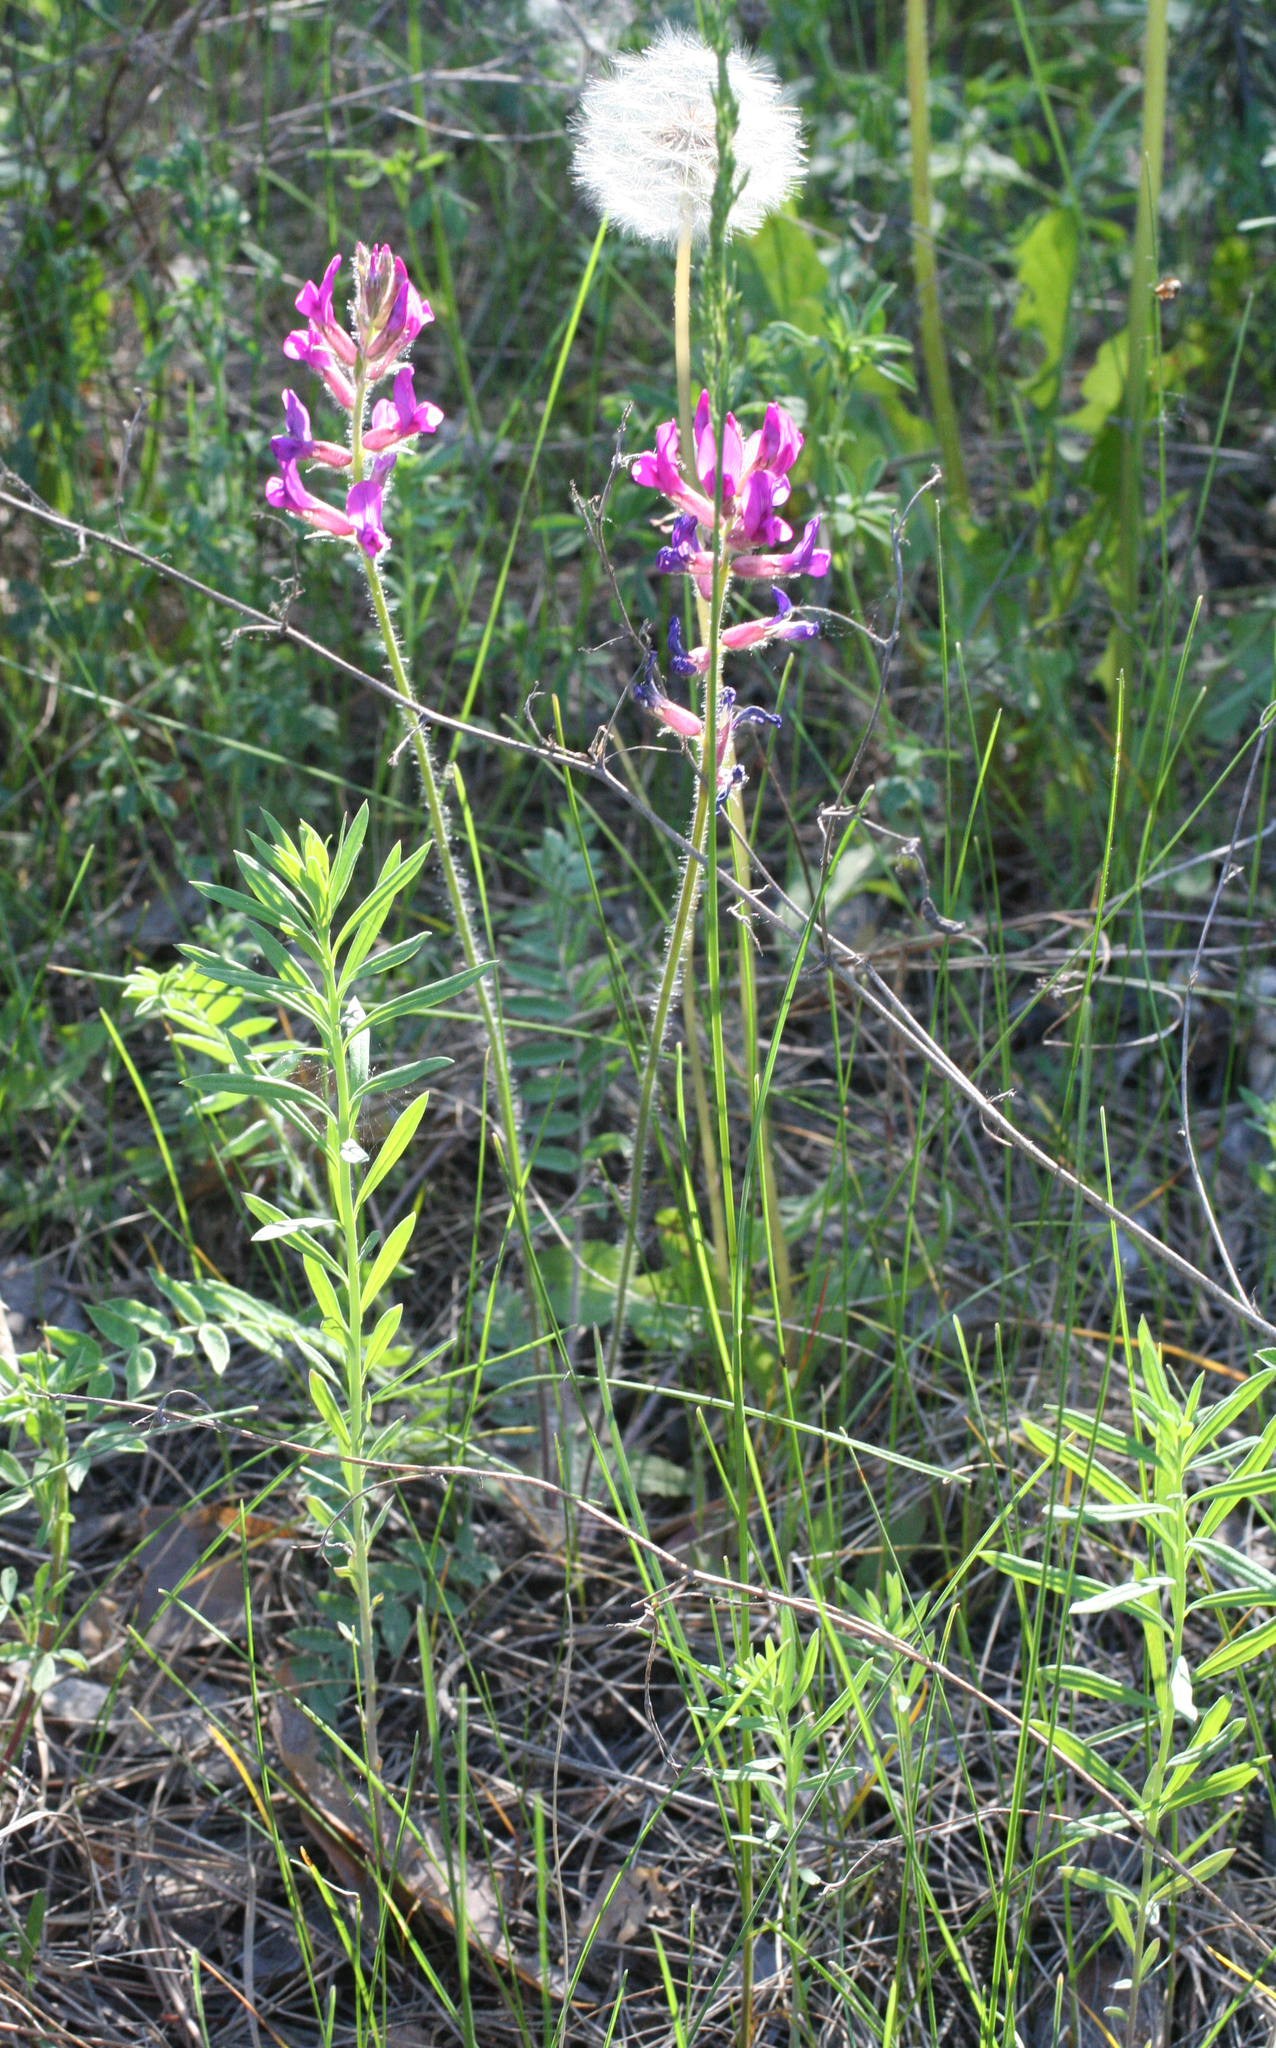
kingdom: Plantae
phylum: Tracheophyta
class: Magnoliopsida
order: Fabales
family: Fabaceae
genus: Oxytropis
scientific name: Oxytropis campanulata
